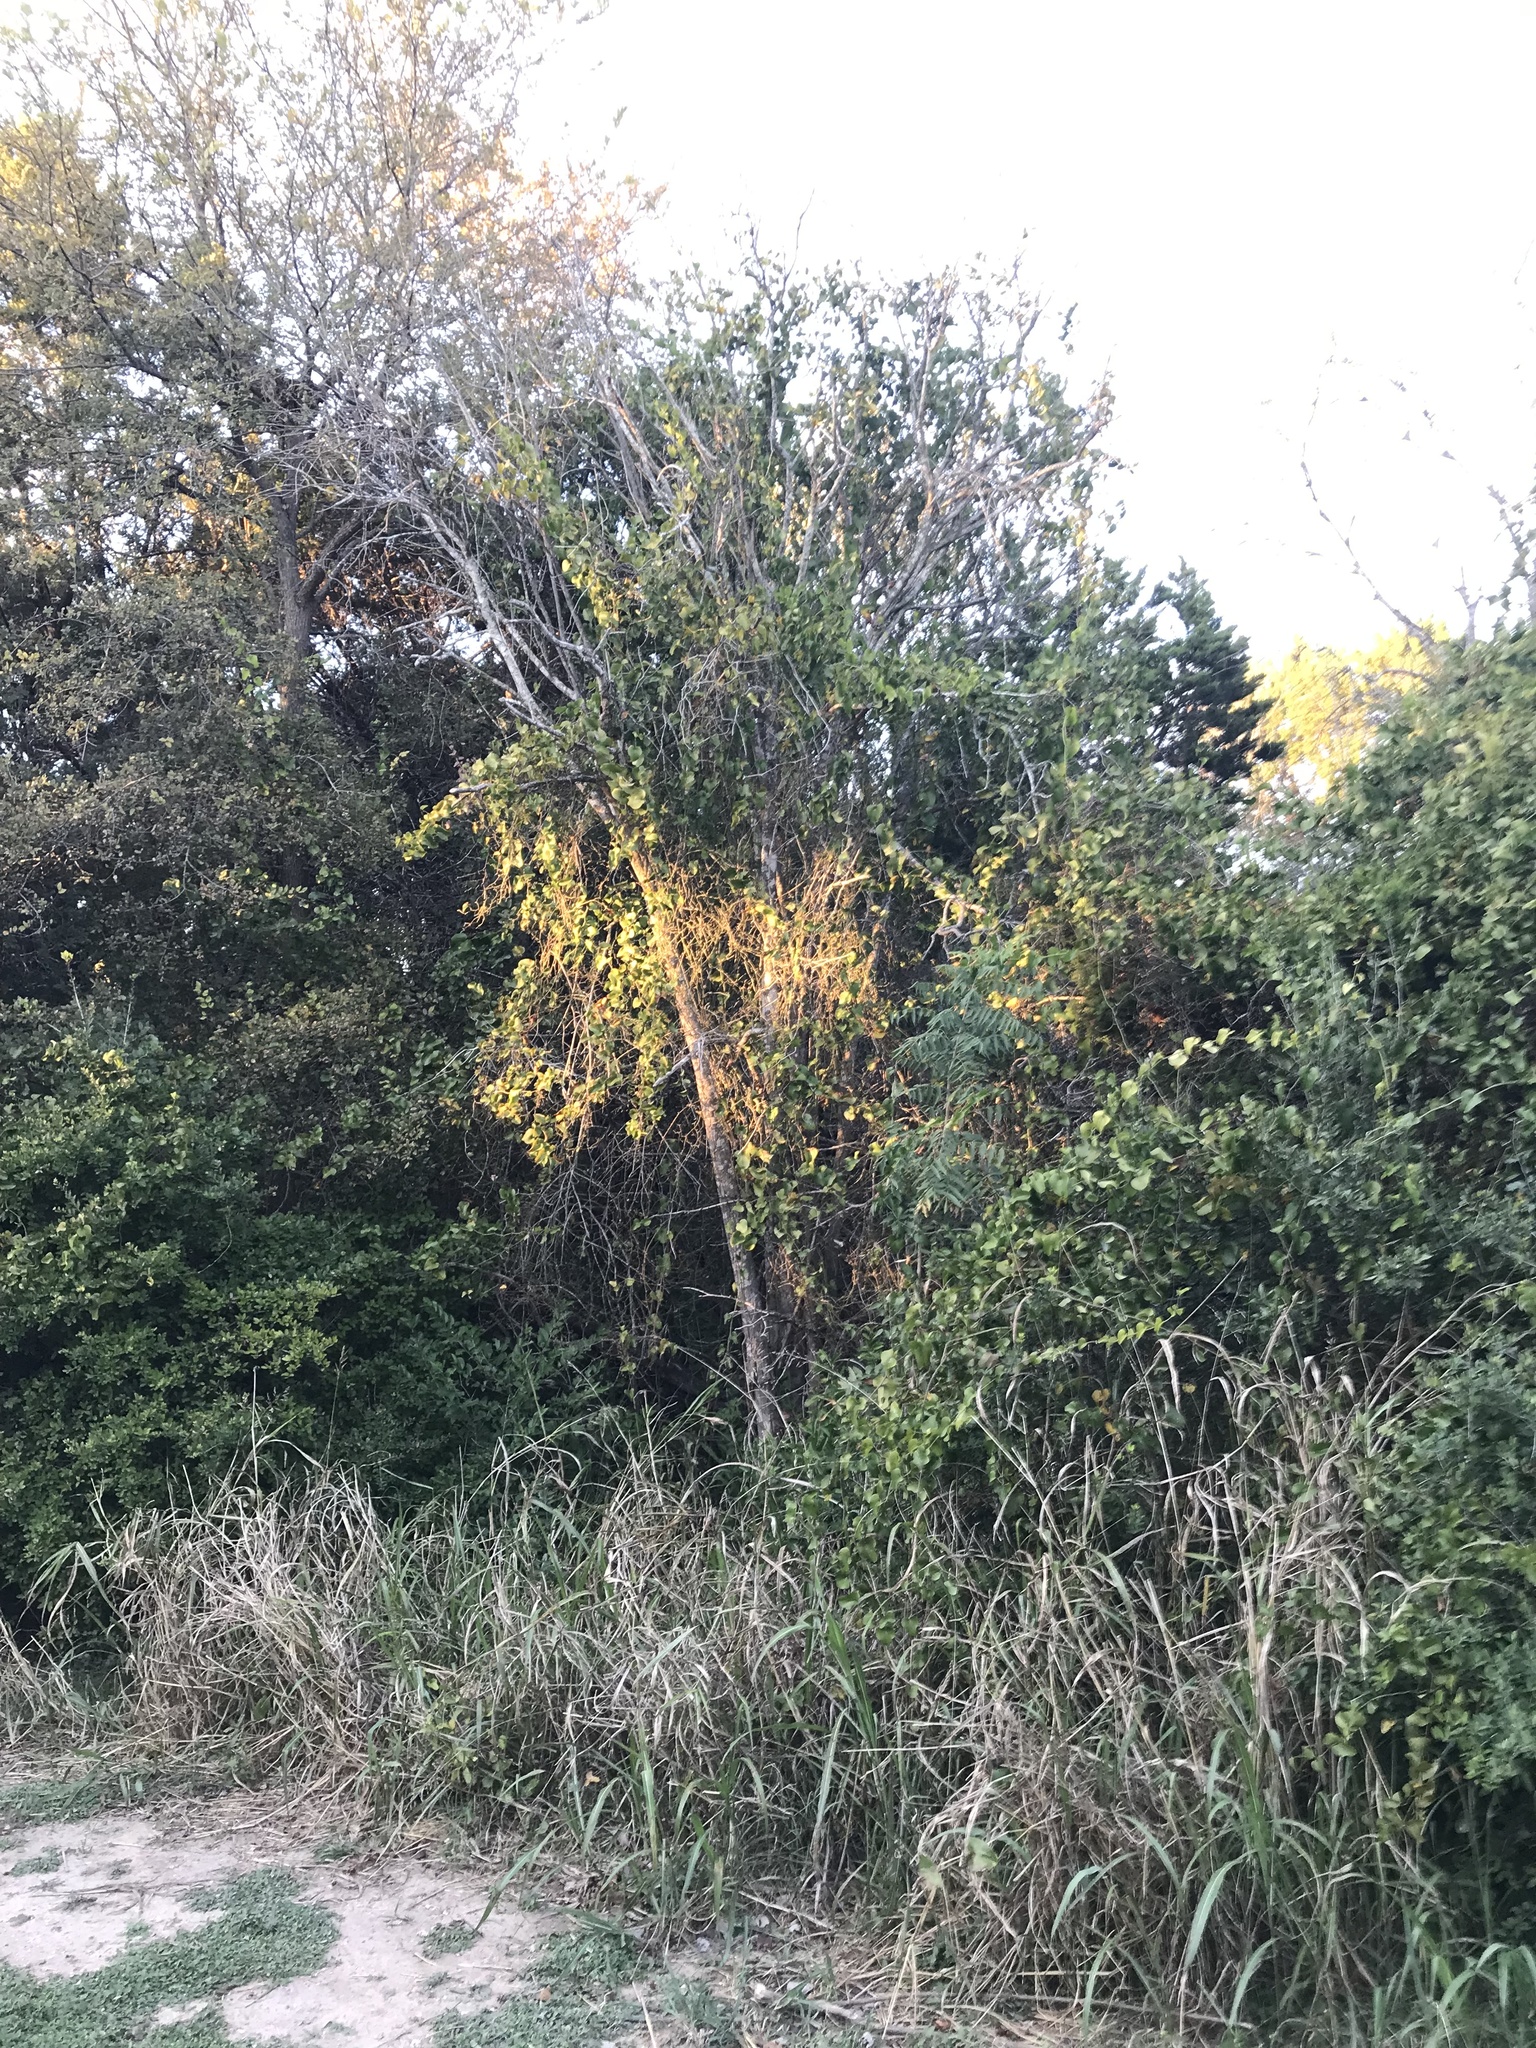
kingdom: Plantae
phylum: Tracheophyta
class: Magnoliopsida
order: Lamiales
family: Oleaceae
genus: Ligustrum
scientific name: Ligustrum lucidum
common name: Glossy privet
